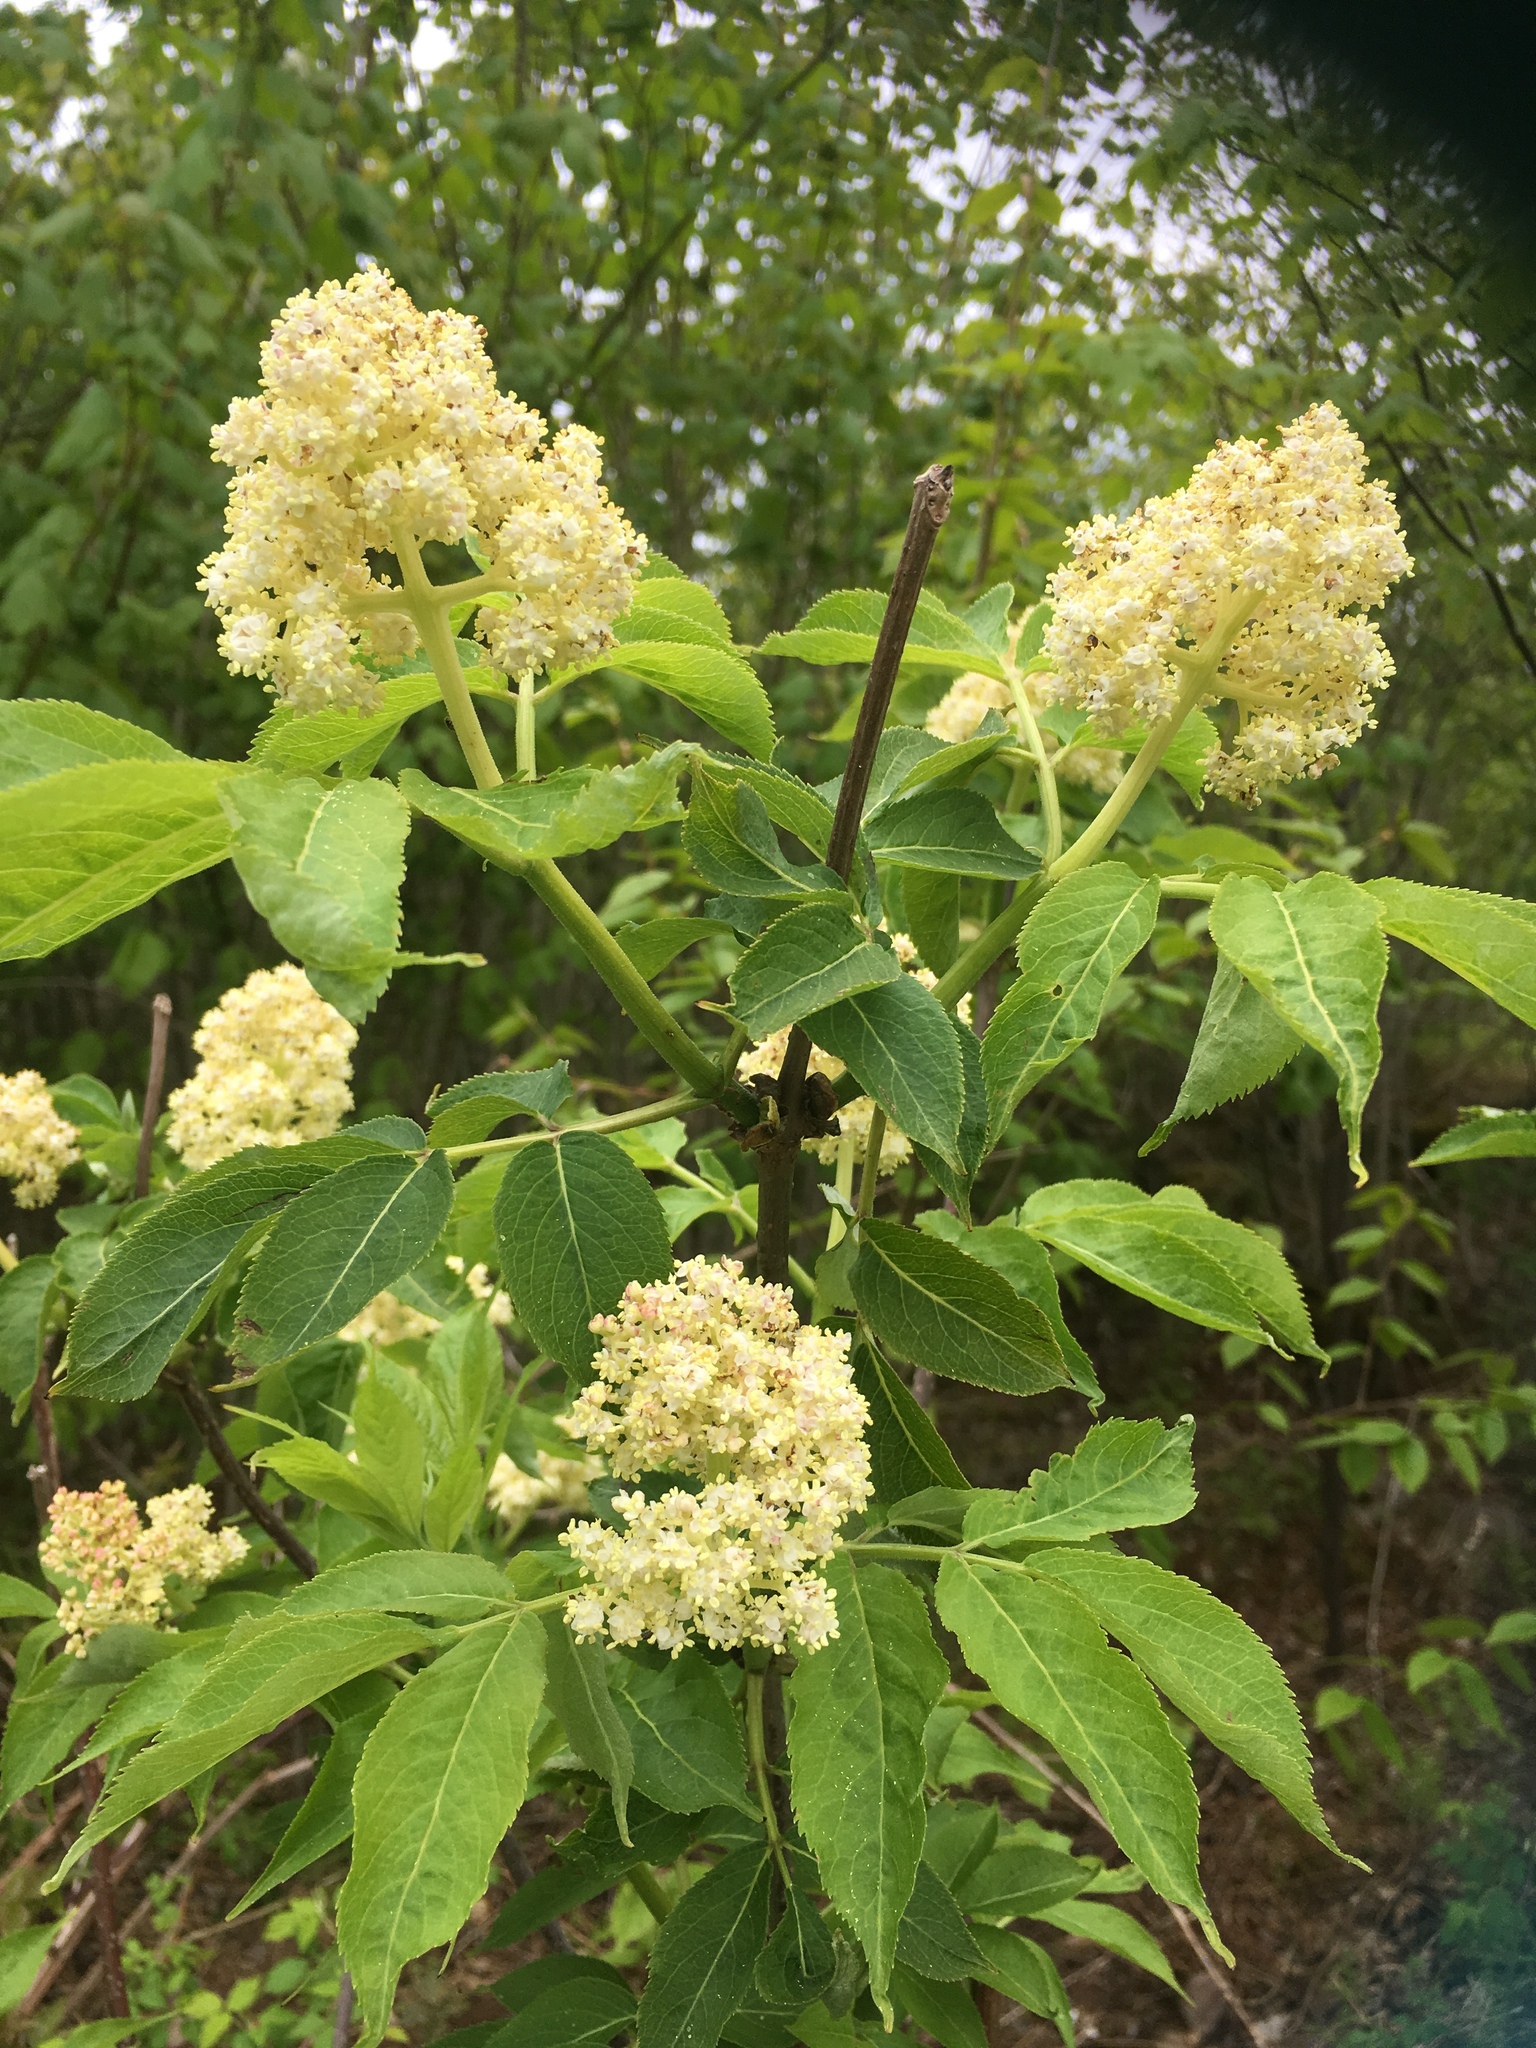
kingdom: Plantae
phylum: Tracheophyta
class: Magnoliopsida
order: Dipsacales
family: Viburnaceae
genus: Sambucus
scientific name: Sambucus racemosa
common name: Red-berried elder
